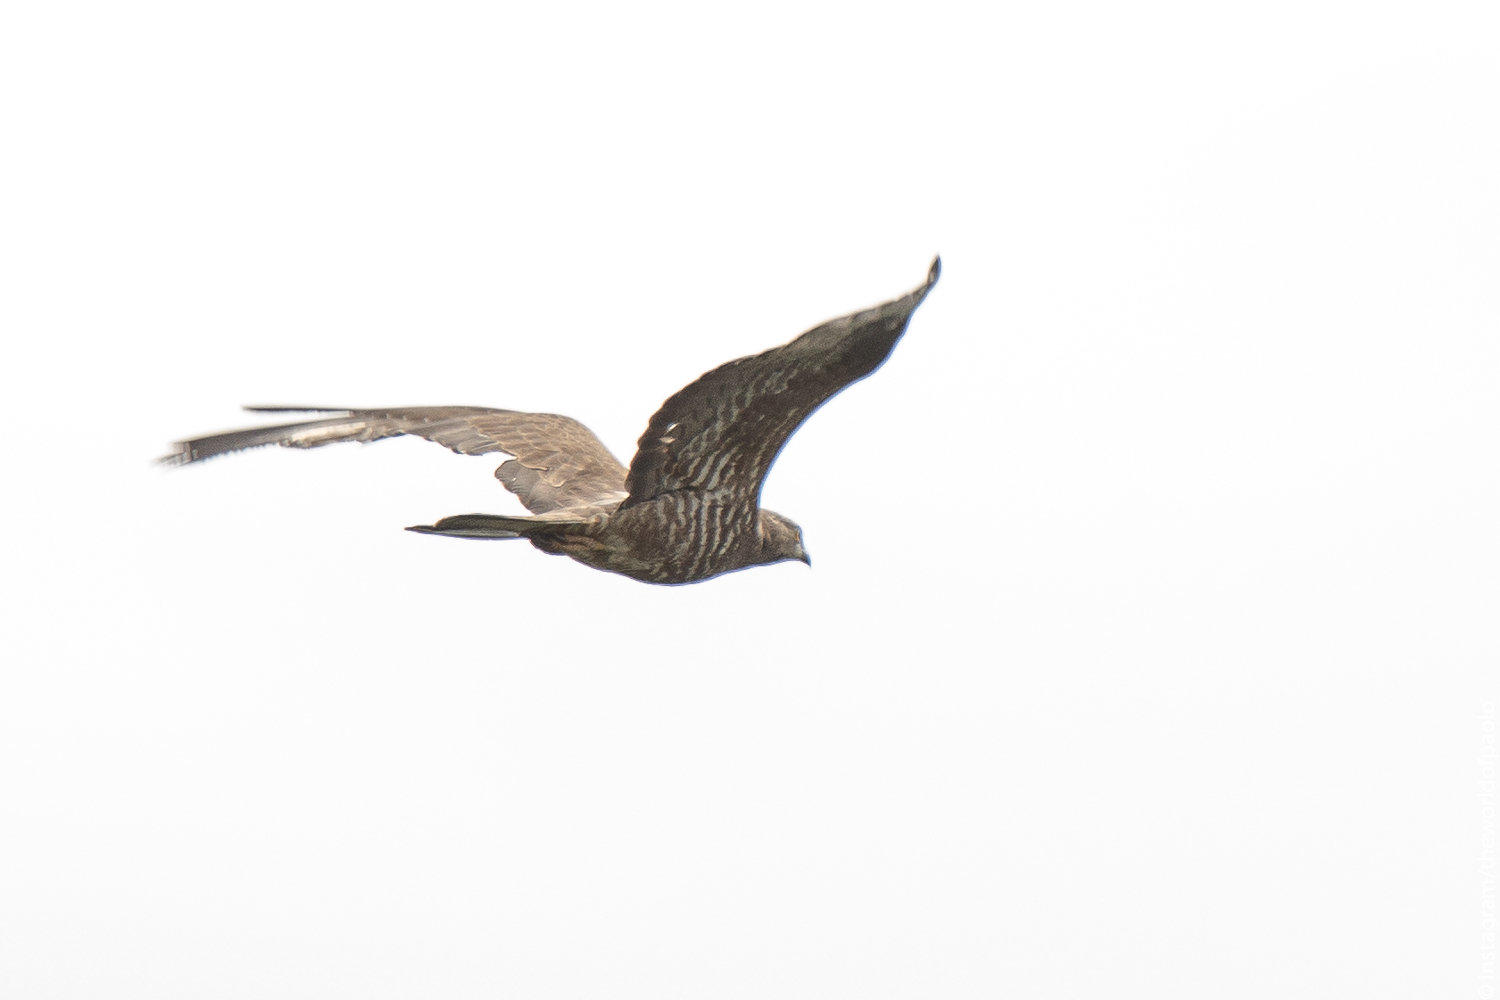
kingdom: Animalia
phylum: Chordata
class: Aves
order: Accipitriformes
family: Accipitridae
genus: Pernis
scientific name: Pernis apivorus
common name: European honey buzzard
